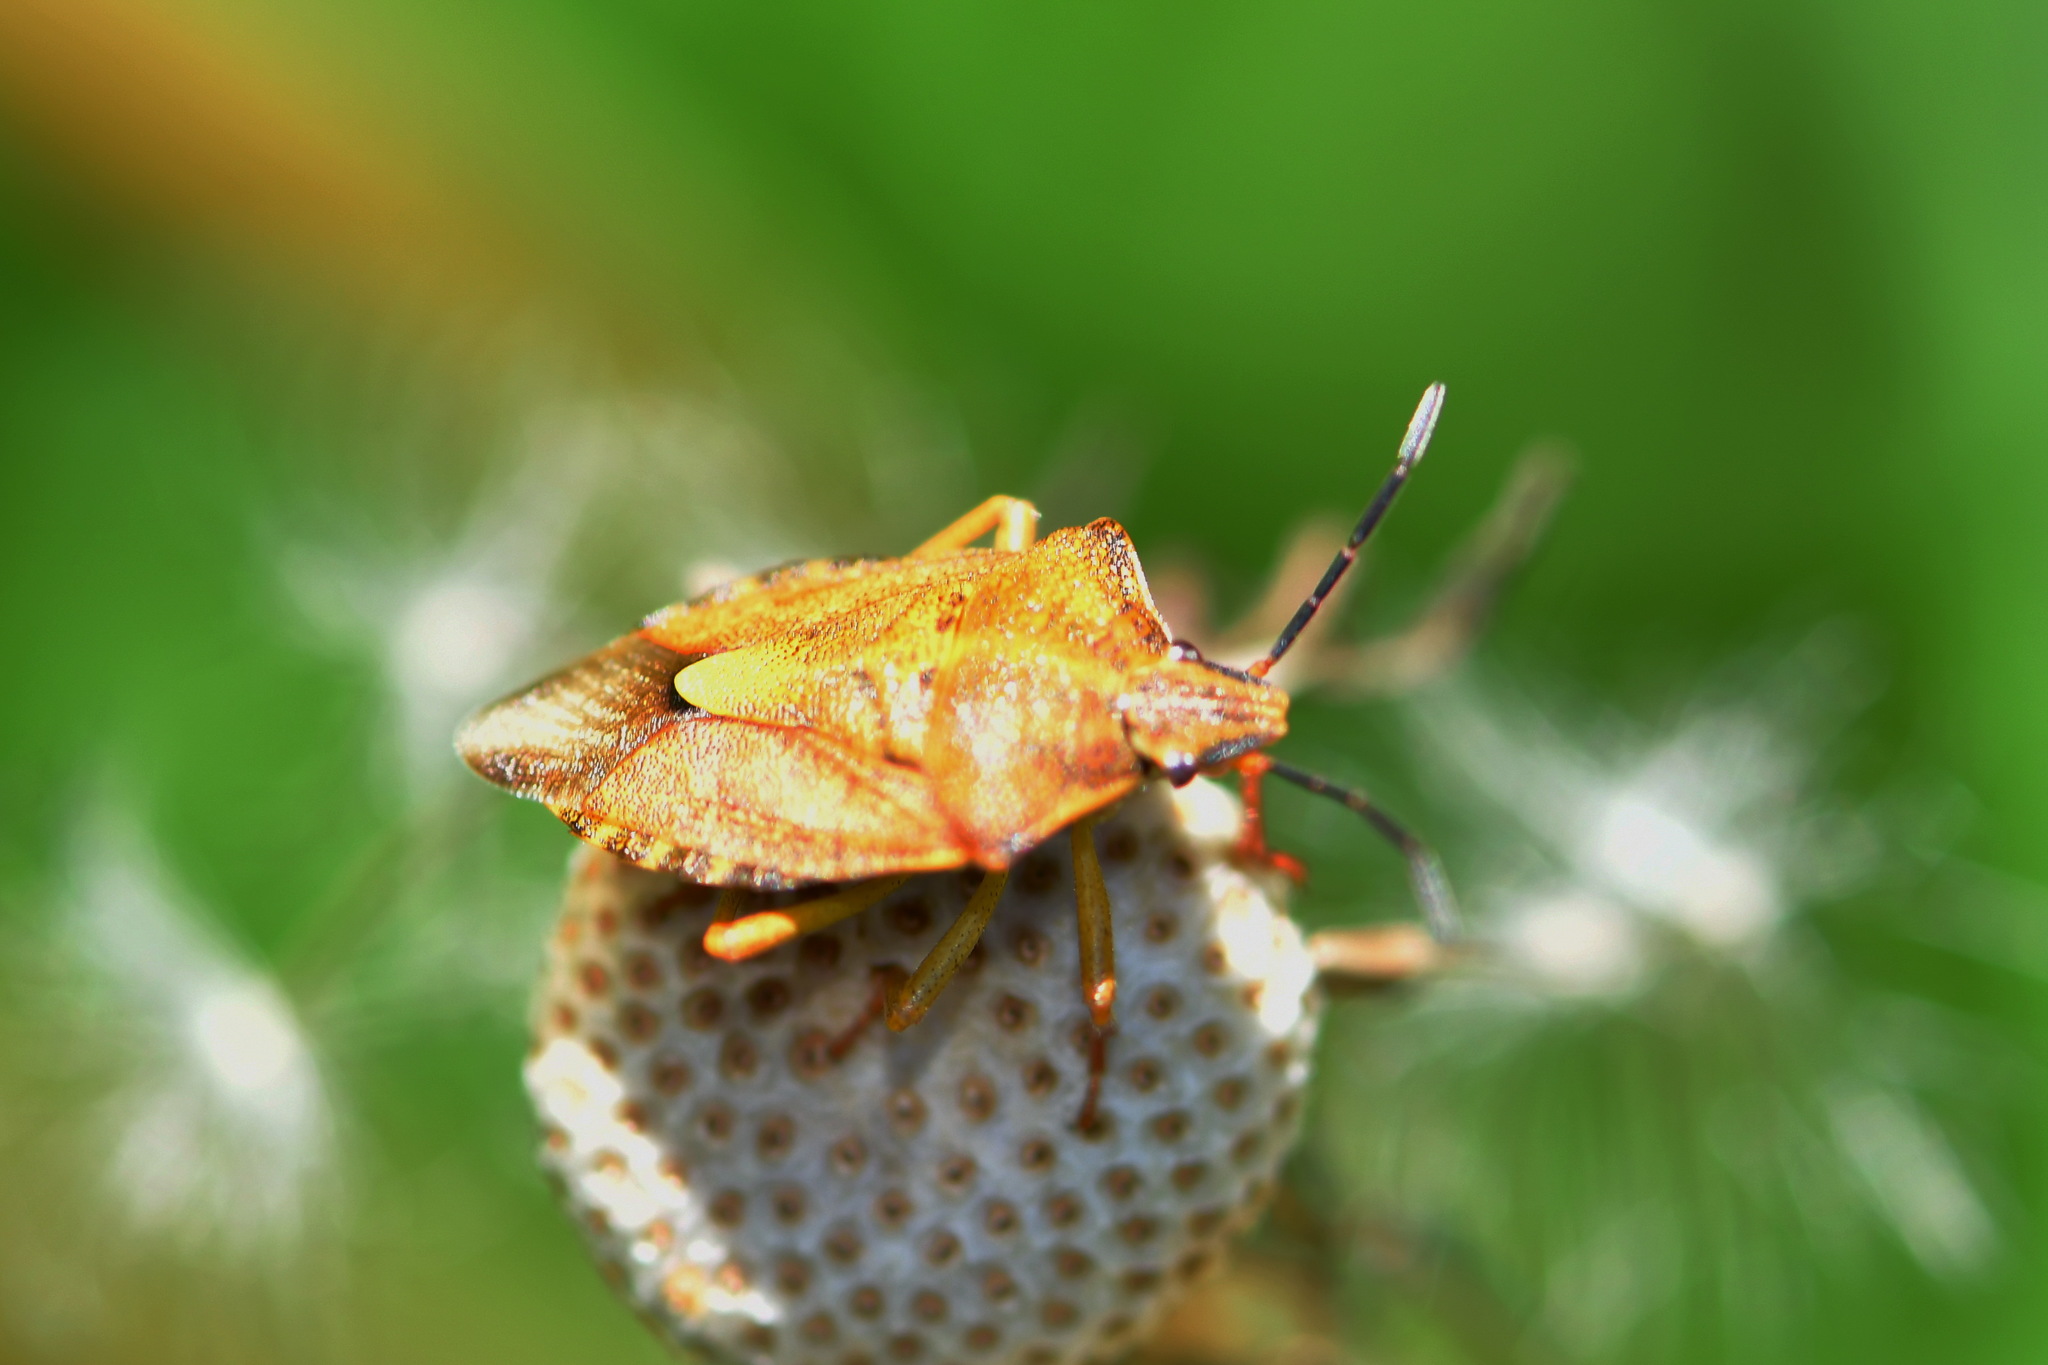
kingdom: Animalia
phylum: Arthropoda
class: Insecta
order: Hemiptera
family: Pentatomidae
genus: Carpocoris
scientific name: Carpocoris purpureipennis
